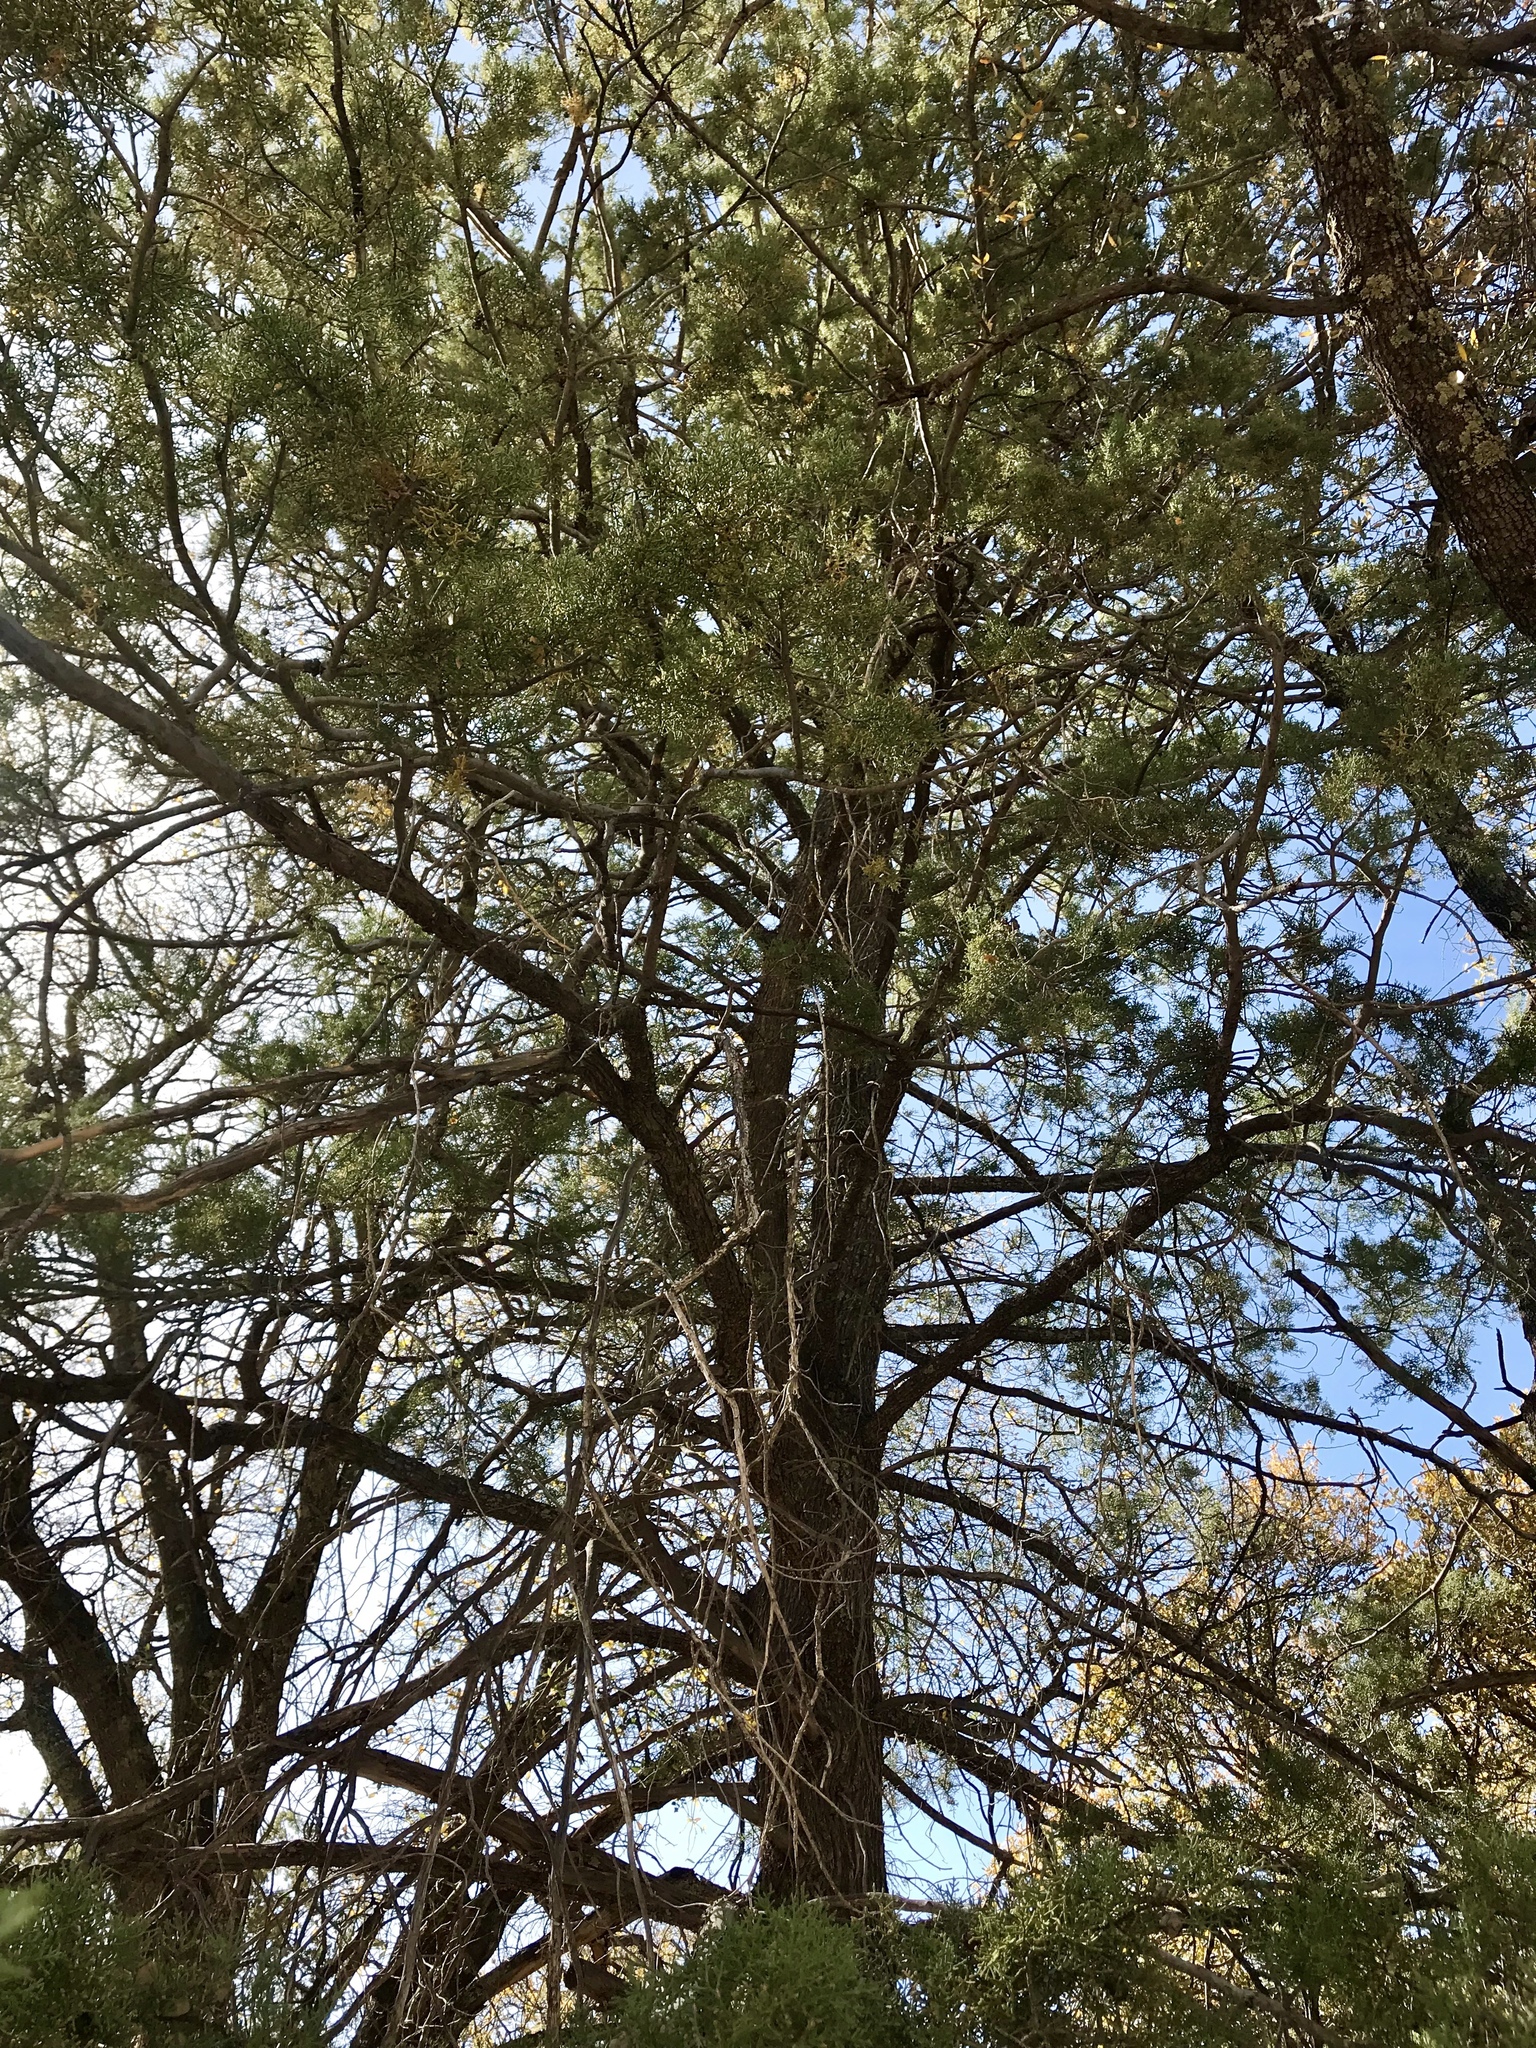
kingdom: Plantae
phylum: Tracheophyta
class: Pinopsida
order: Pinales
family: Cupressaceae
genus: Cupressus
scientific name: Cupressus arizonica
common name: Arizona cypress
